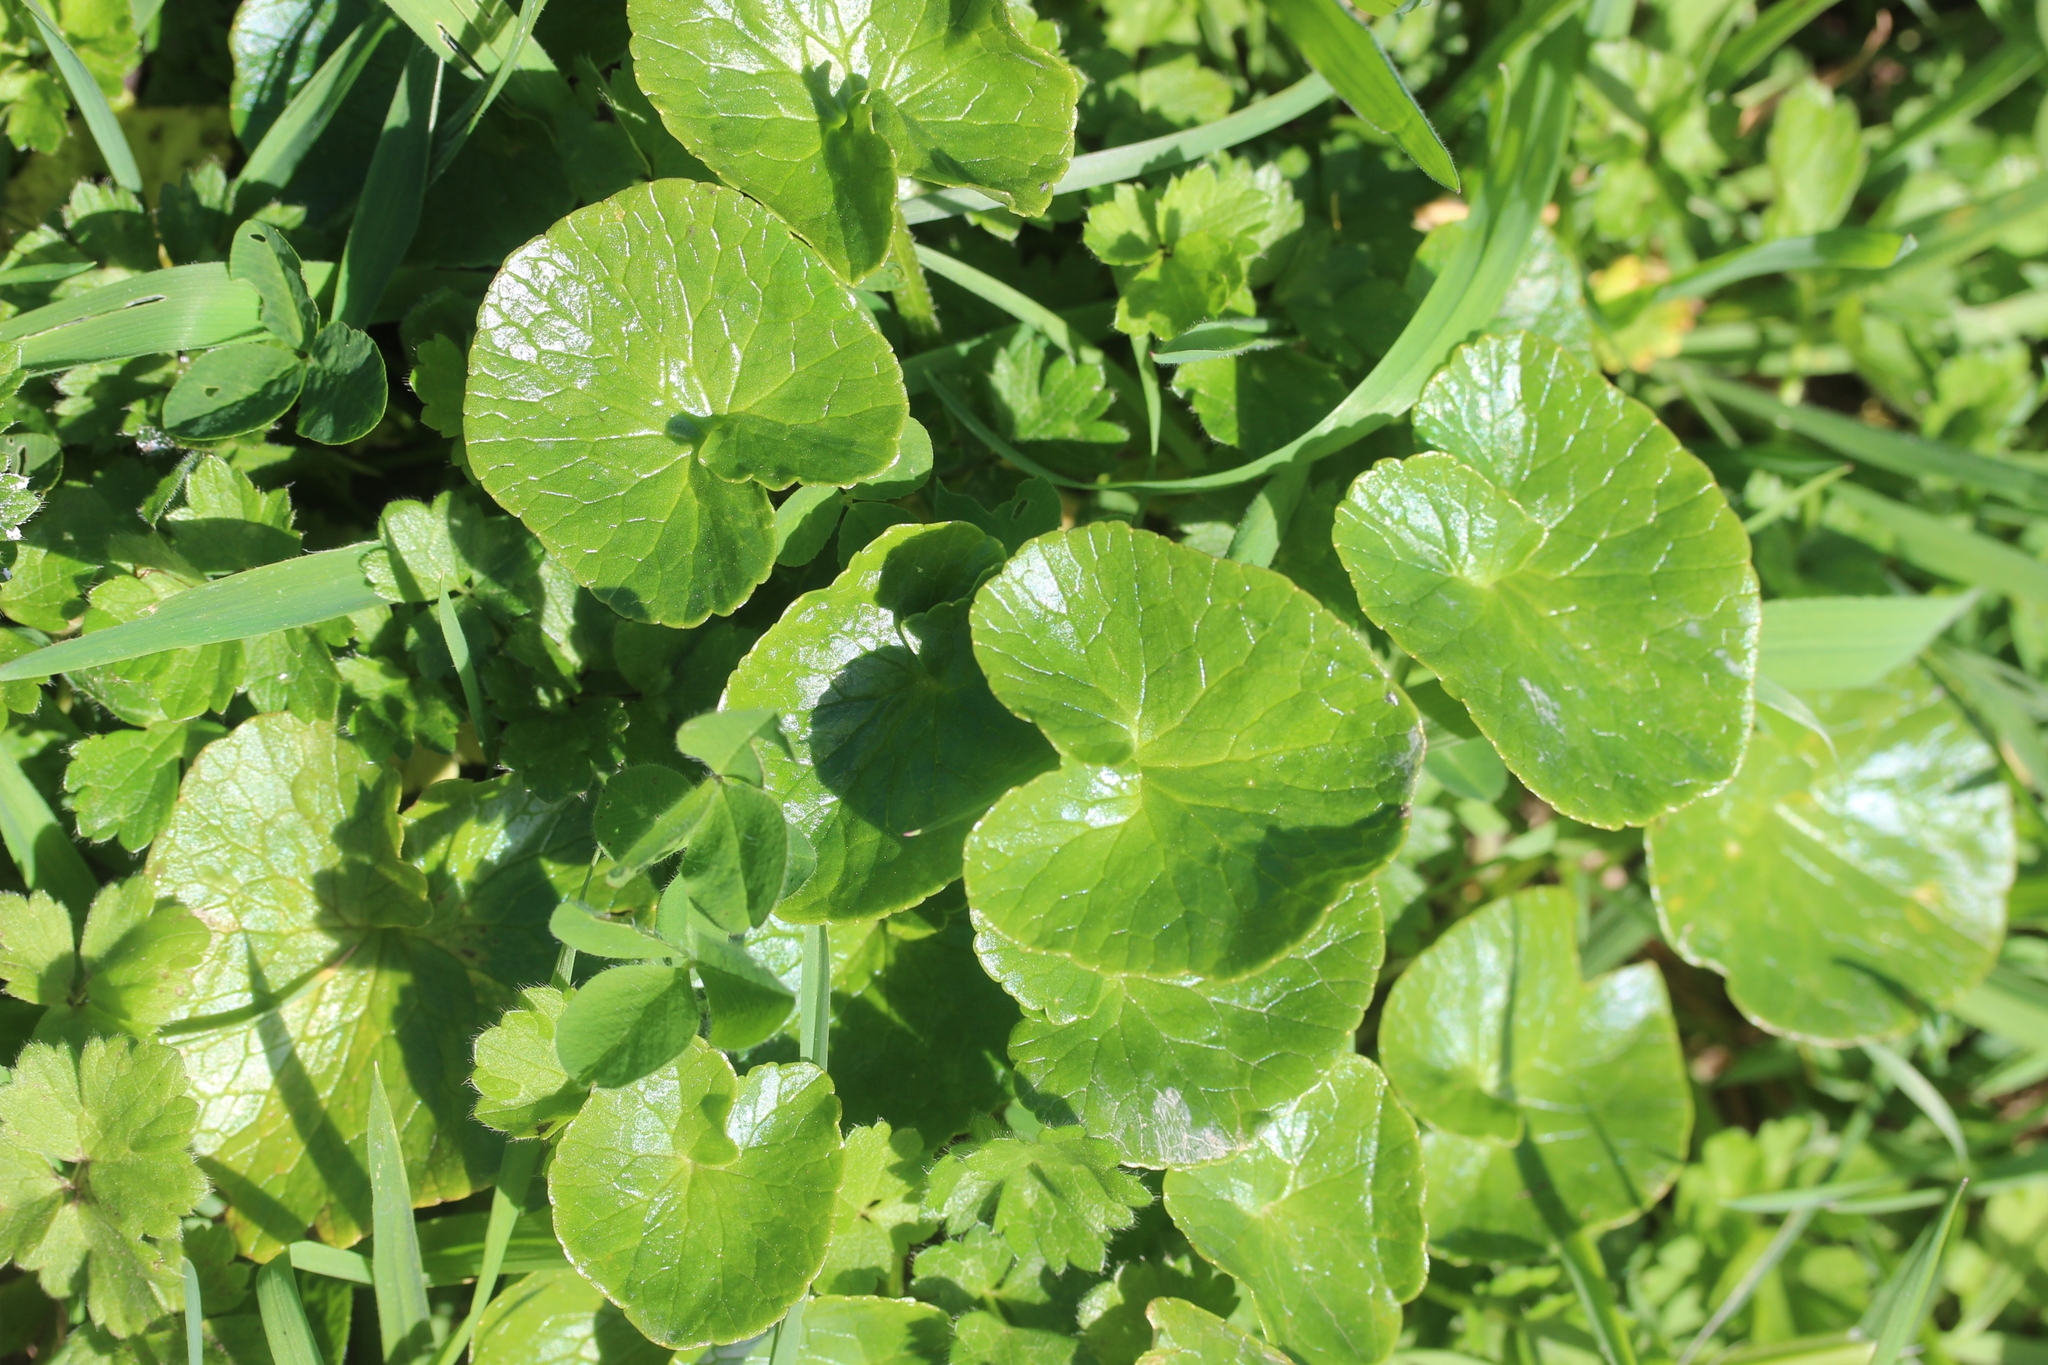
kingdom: Plantae
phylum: Tracheophyta
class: Magnoliopsida
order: Ranunculales
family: Ranunculaceae
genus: Ficaria
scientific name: Ficaria verna
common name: Lesser celandine
